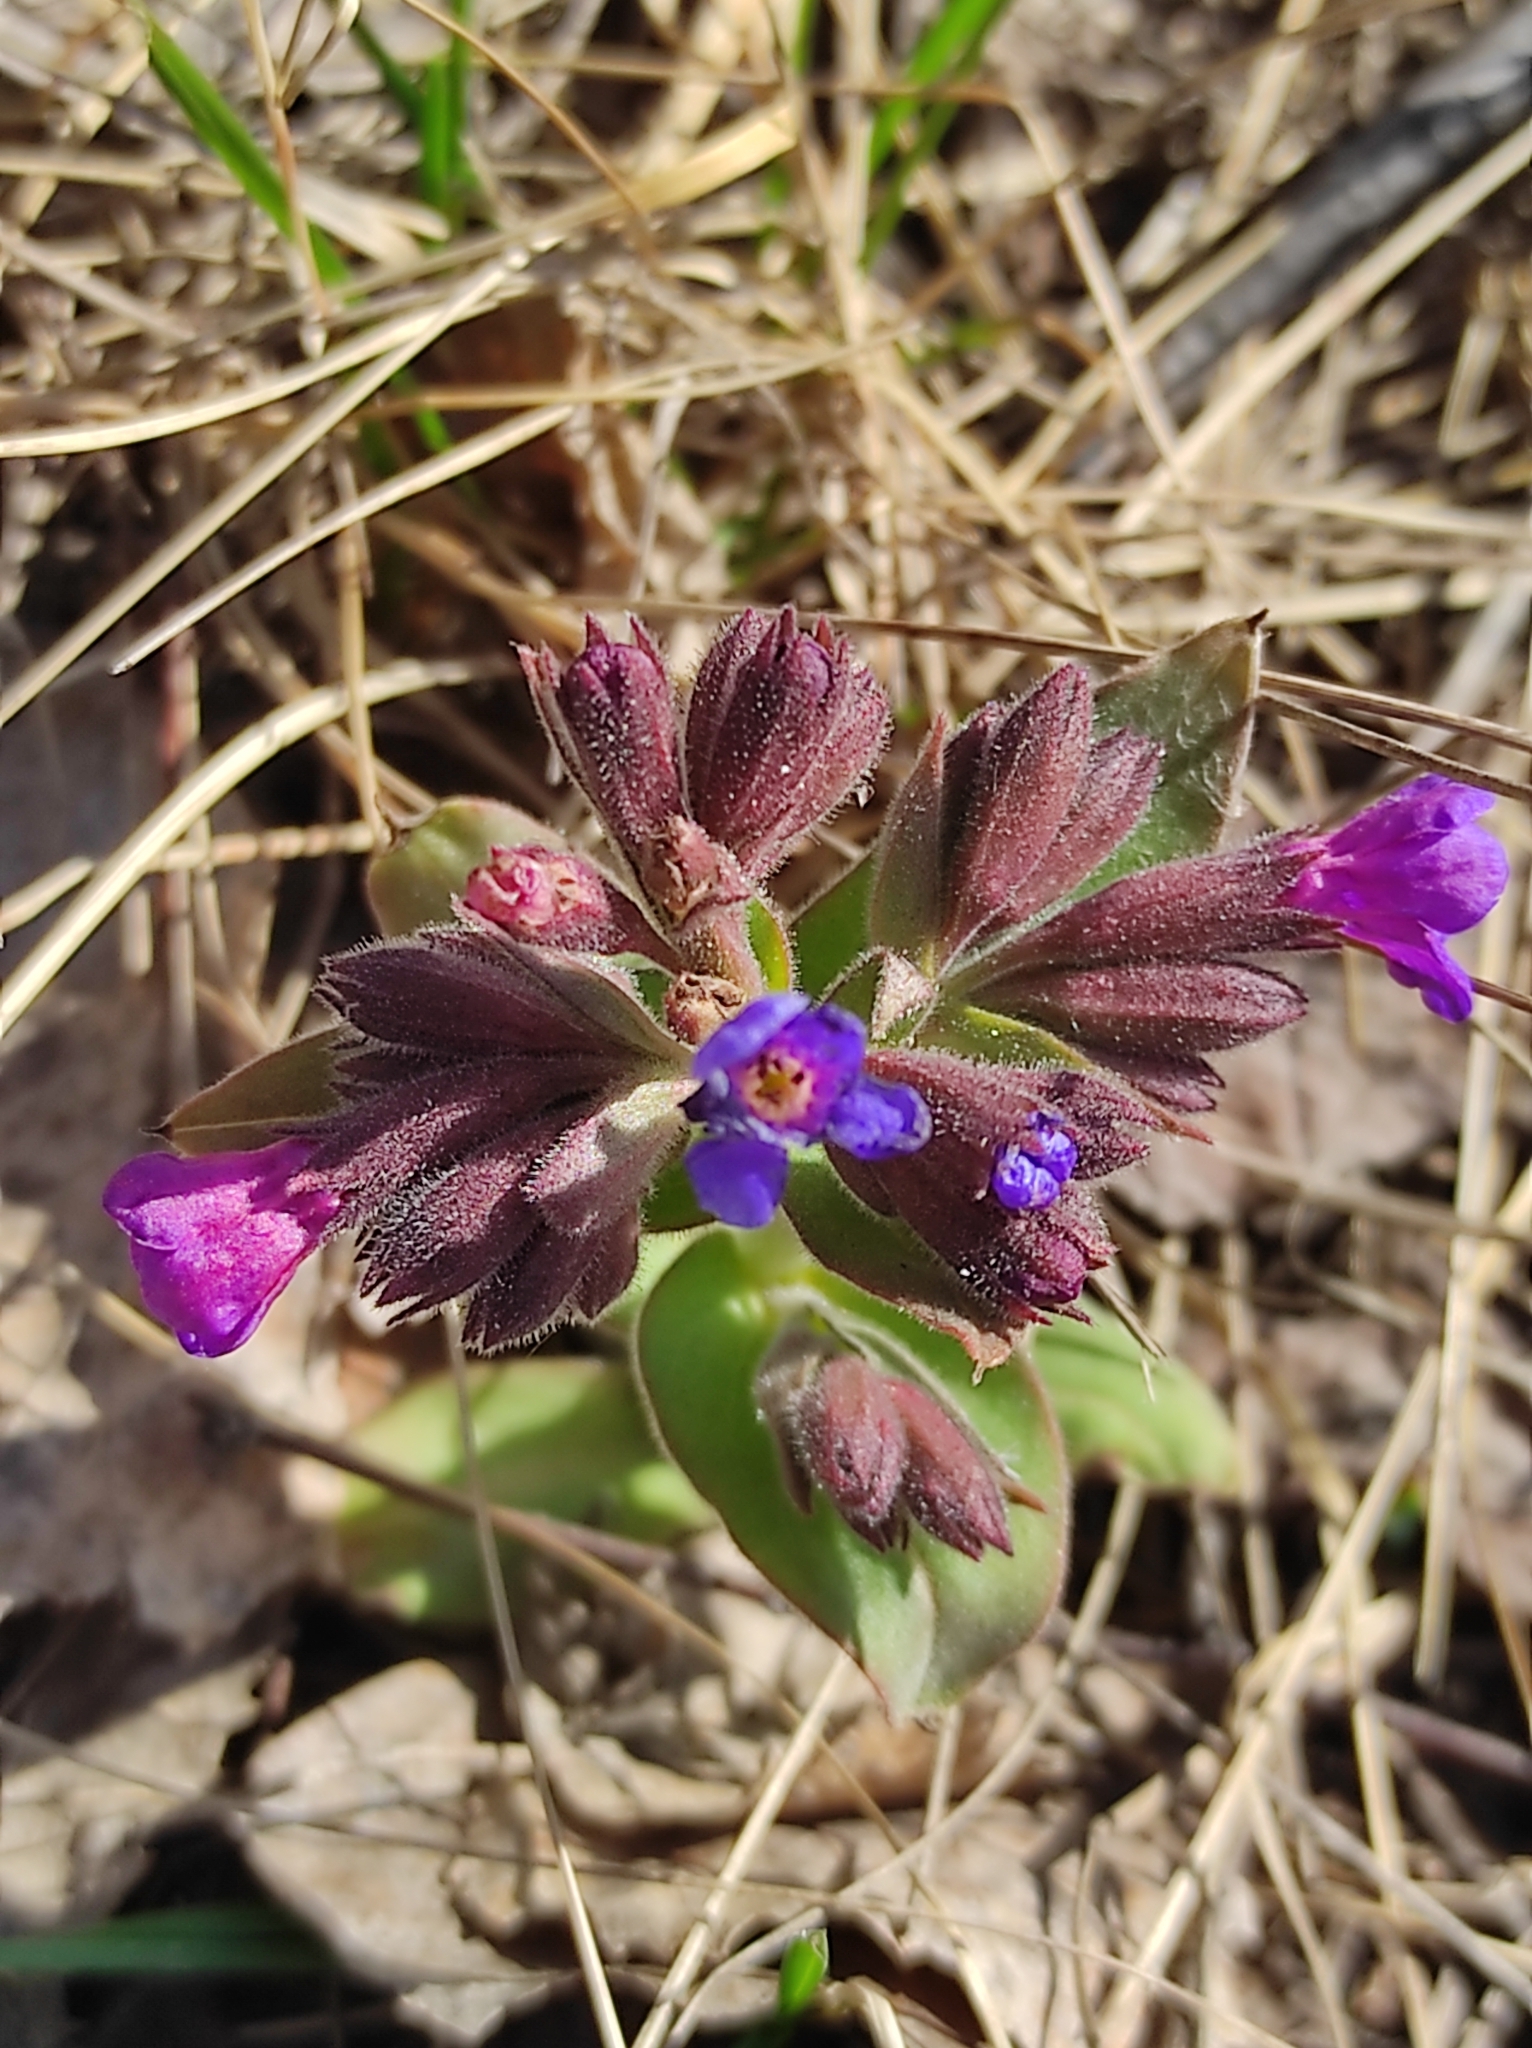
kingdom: Plantae
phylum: Tracheophyta
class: Magnoliopsida
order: Boraginales
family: Boraginaceae
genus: Pulmonaria
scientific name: Pulmonaria mollis
